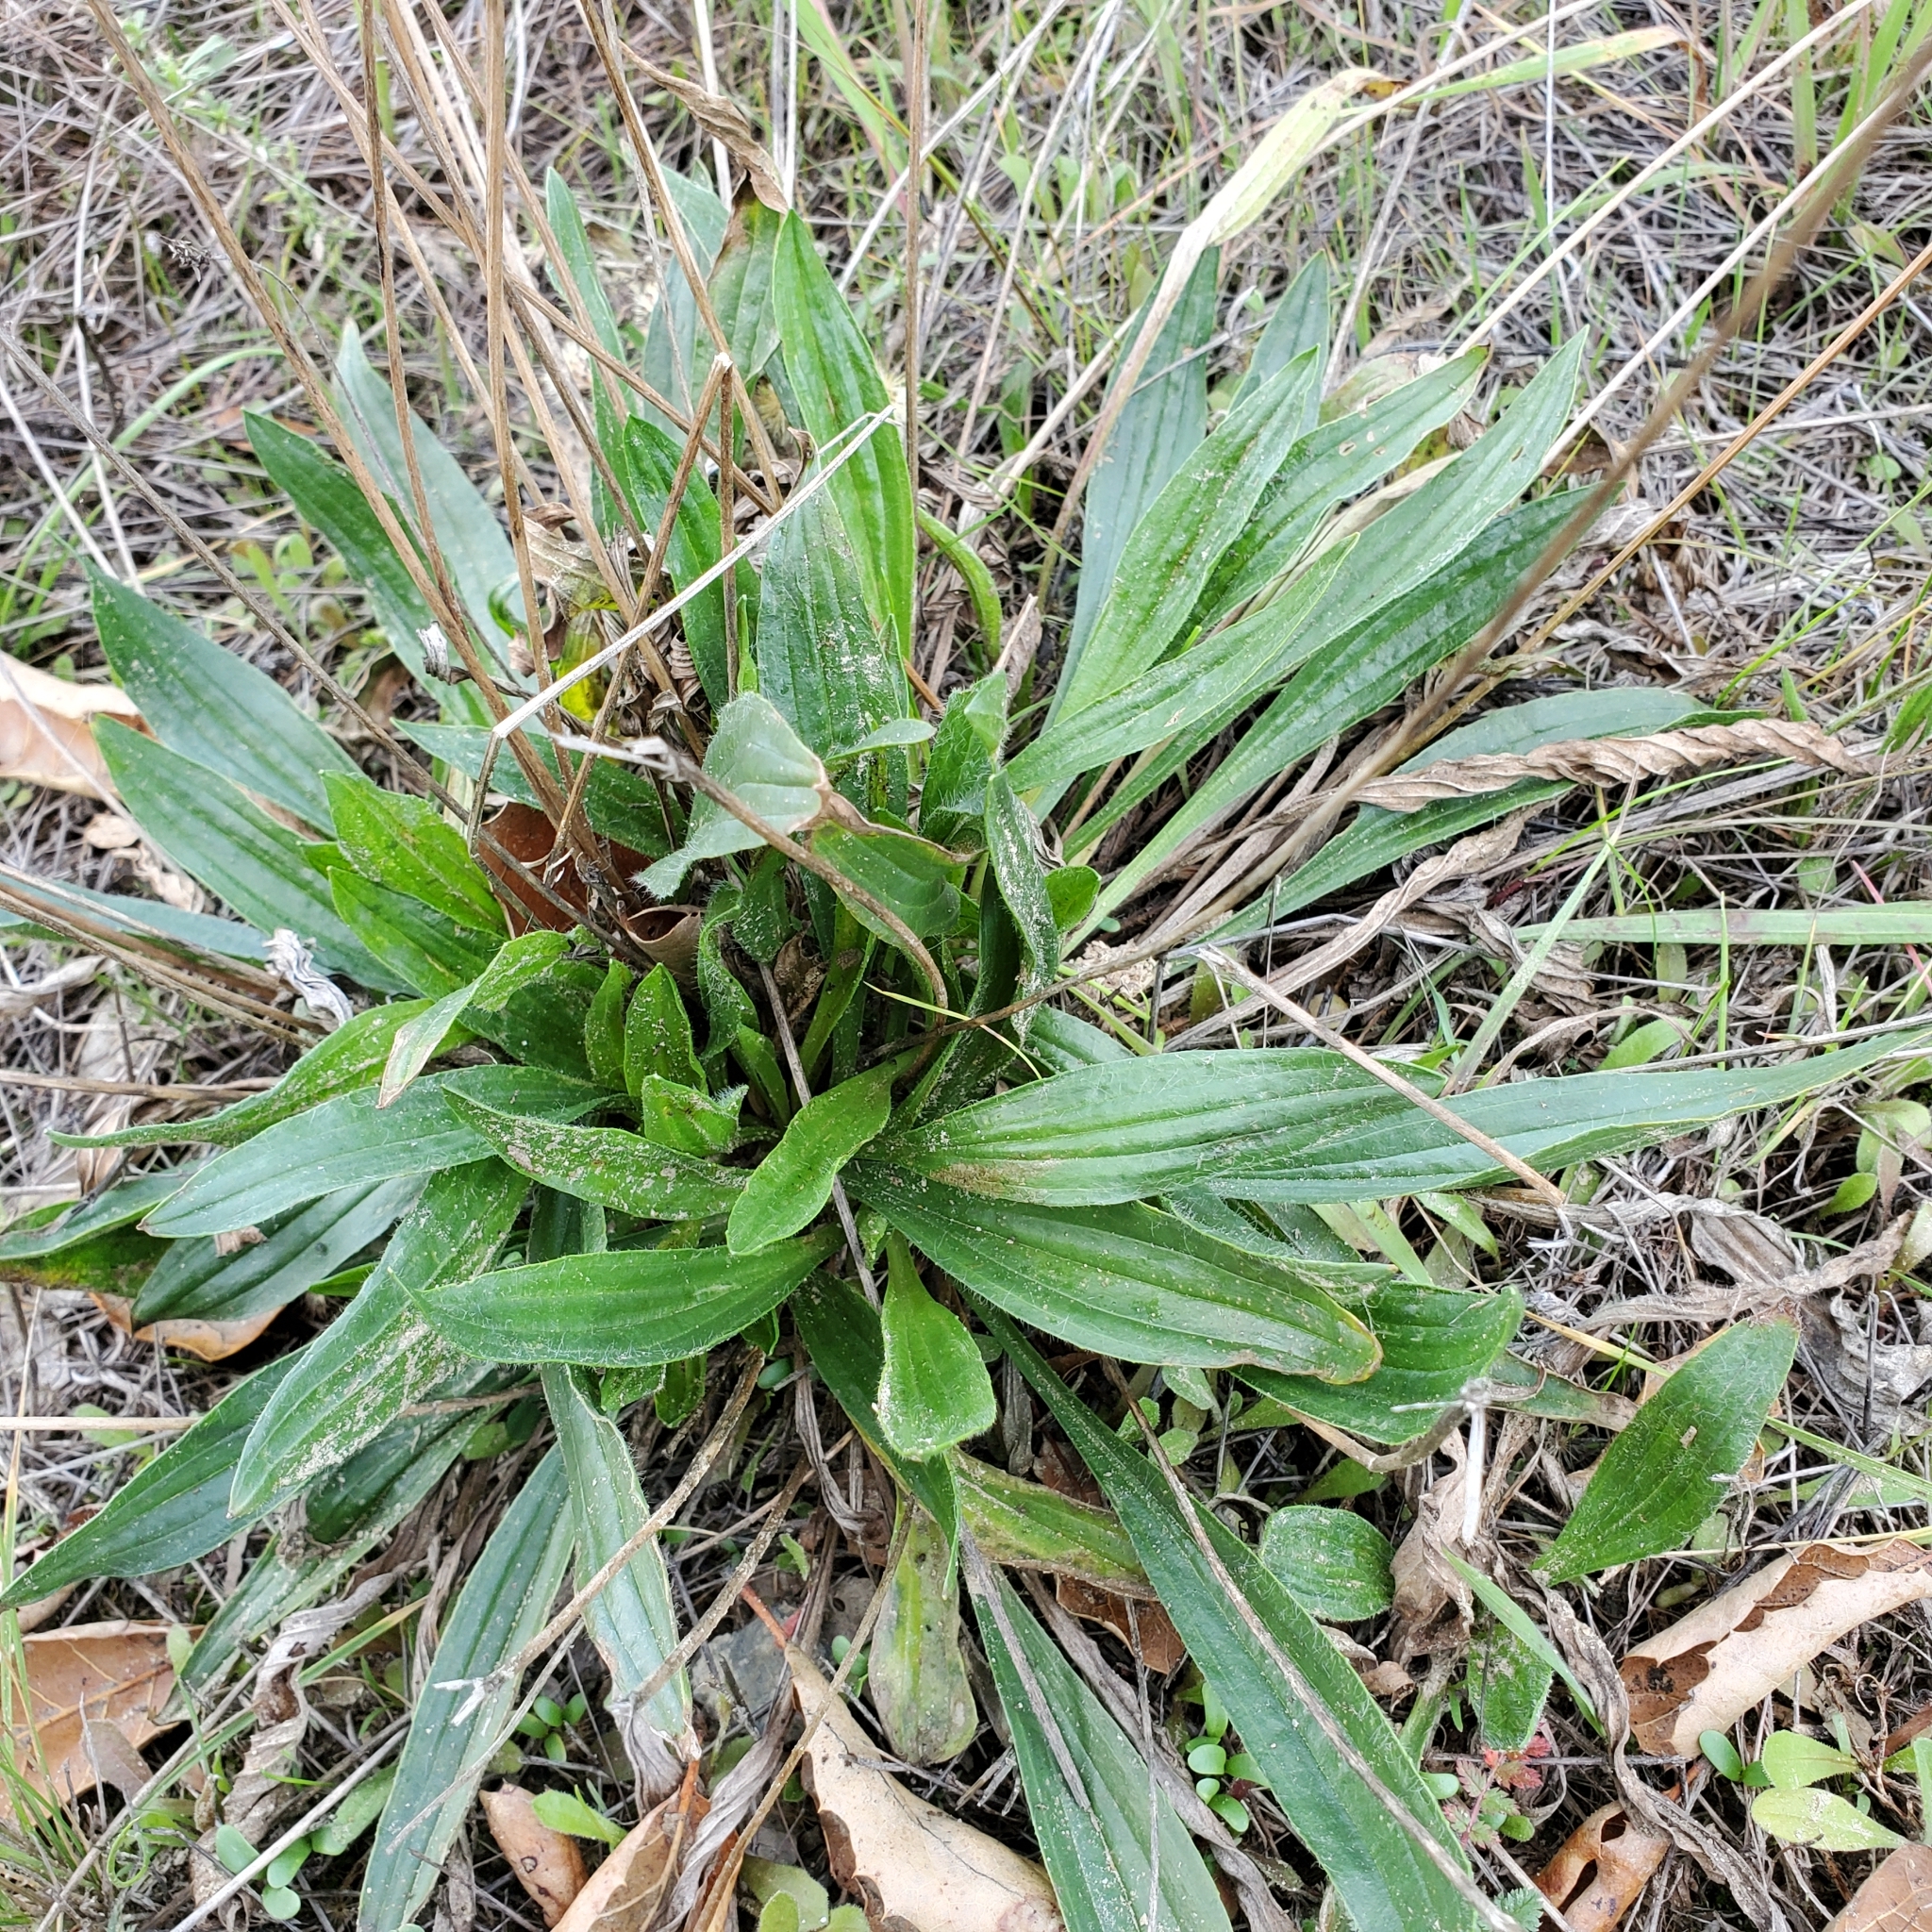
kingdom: Plantae
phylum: Tracheophyta
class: Magnoliopsida
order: Lamiales
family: Plantaginaceae
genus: Plantago
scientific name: Plantago lanceolata
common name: Ribwort plantain
